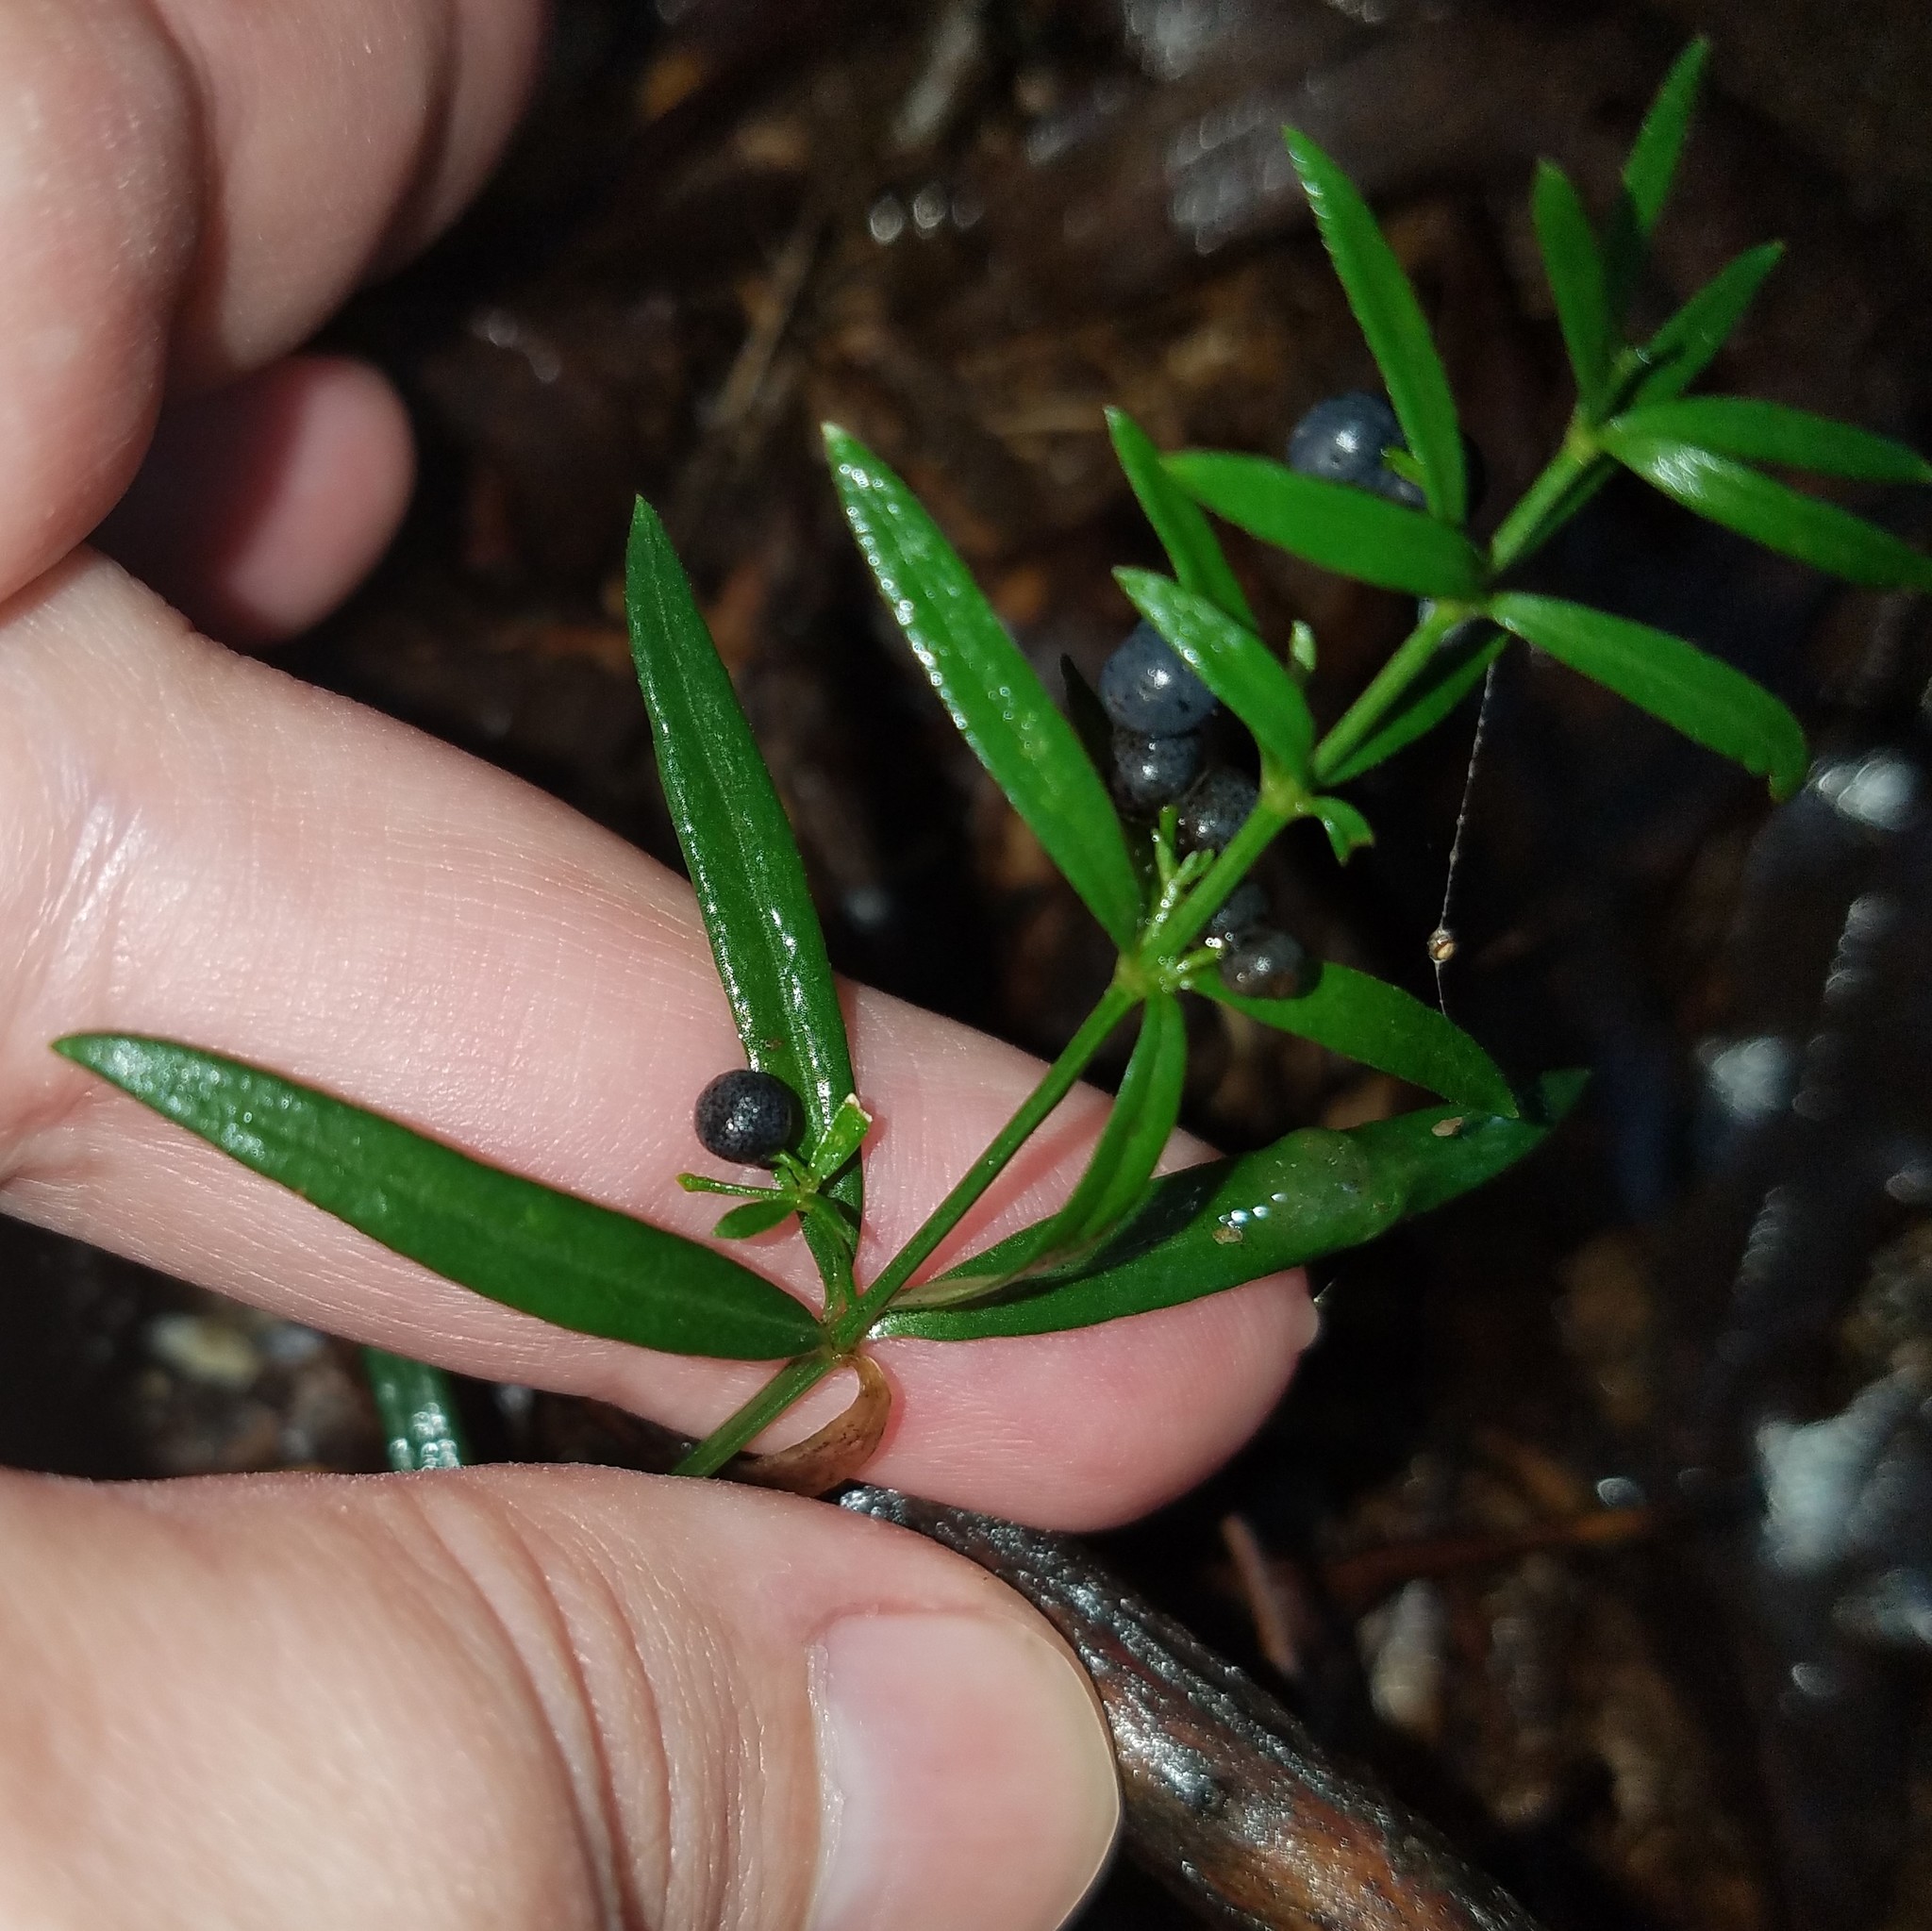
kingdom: Plantae
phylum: Tracheophyta
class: Magnoliopsida
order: Gentianales
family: Rubiaceae
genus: Galium
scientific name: Galium uniflorum
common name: One-flower bedstraw
